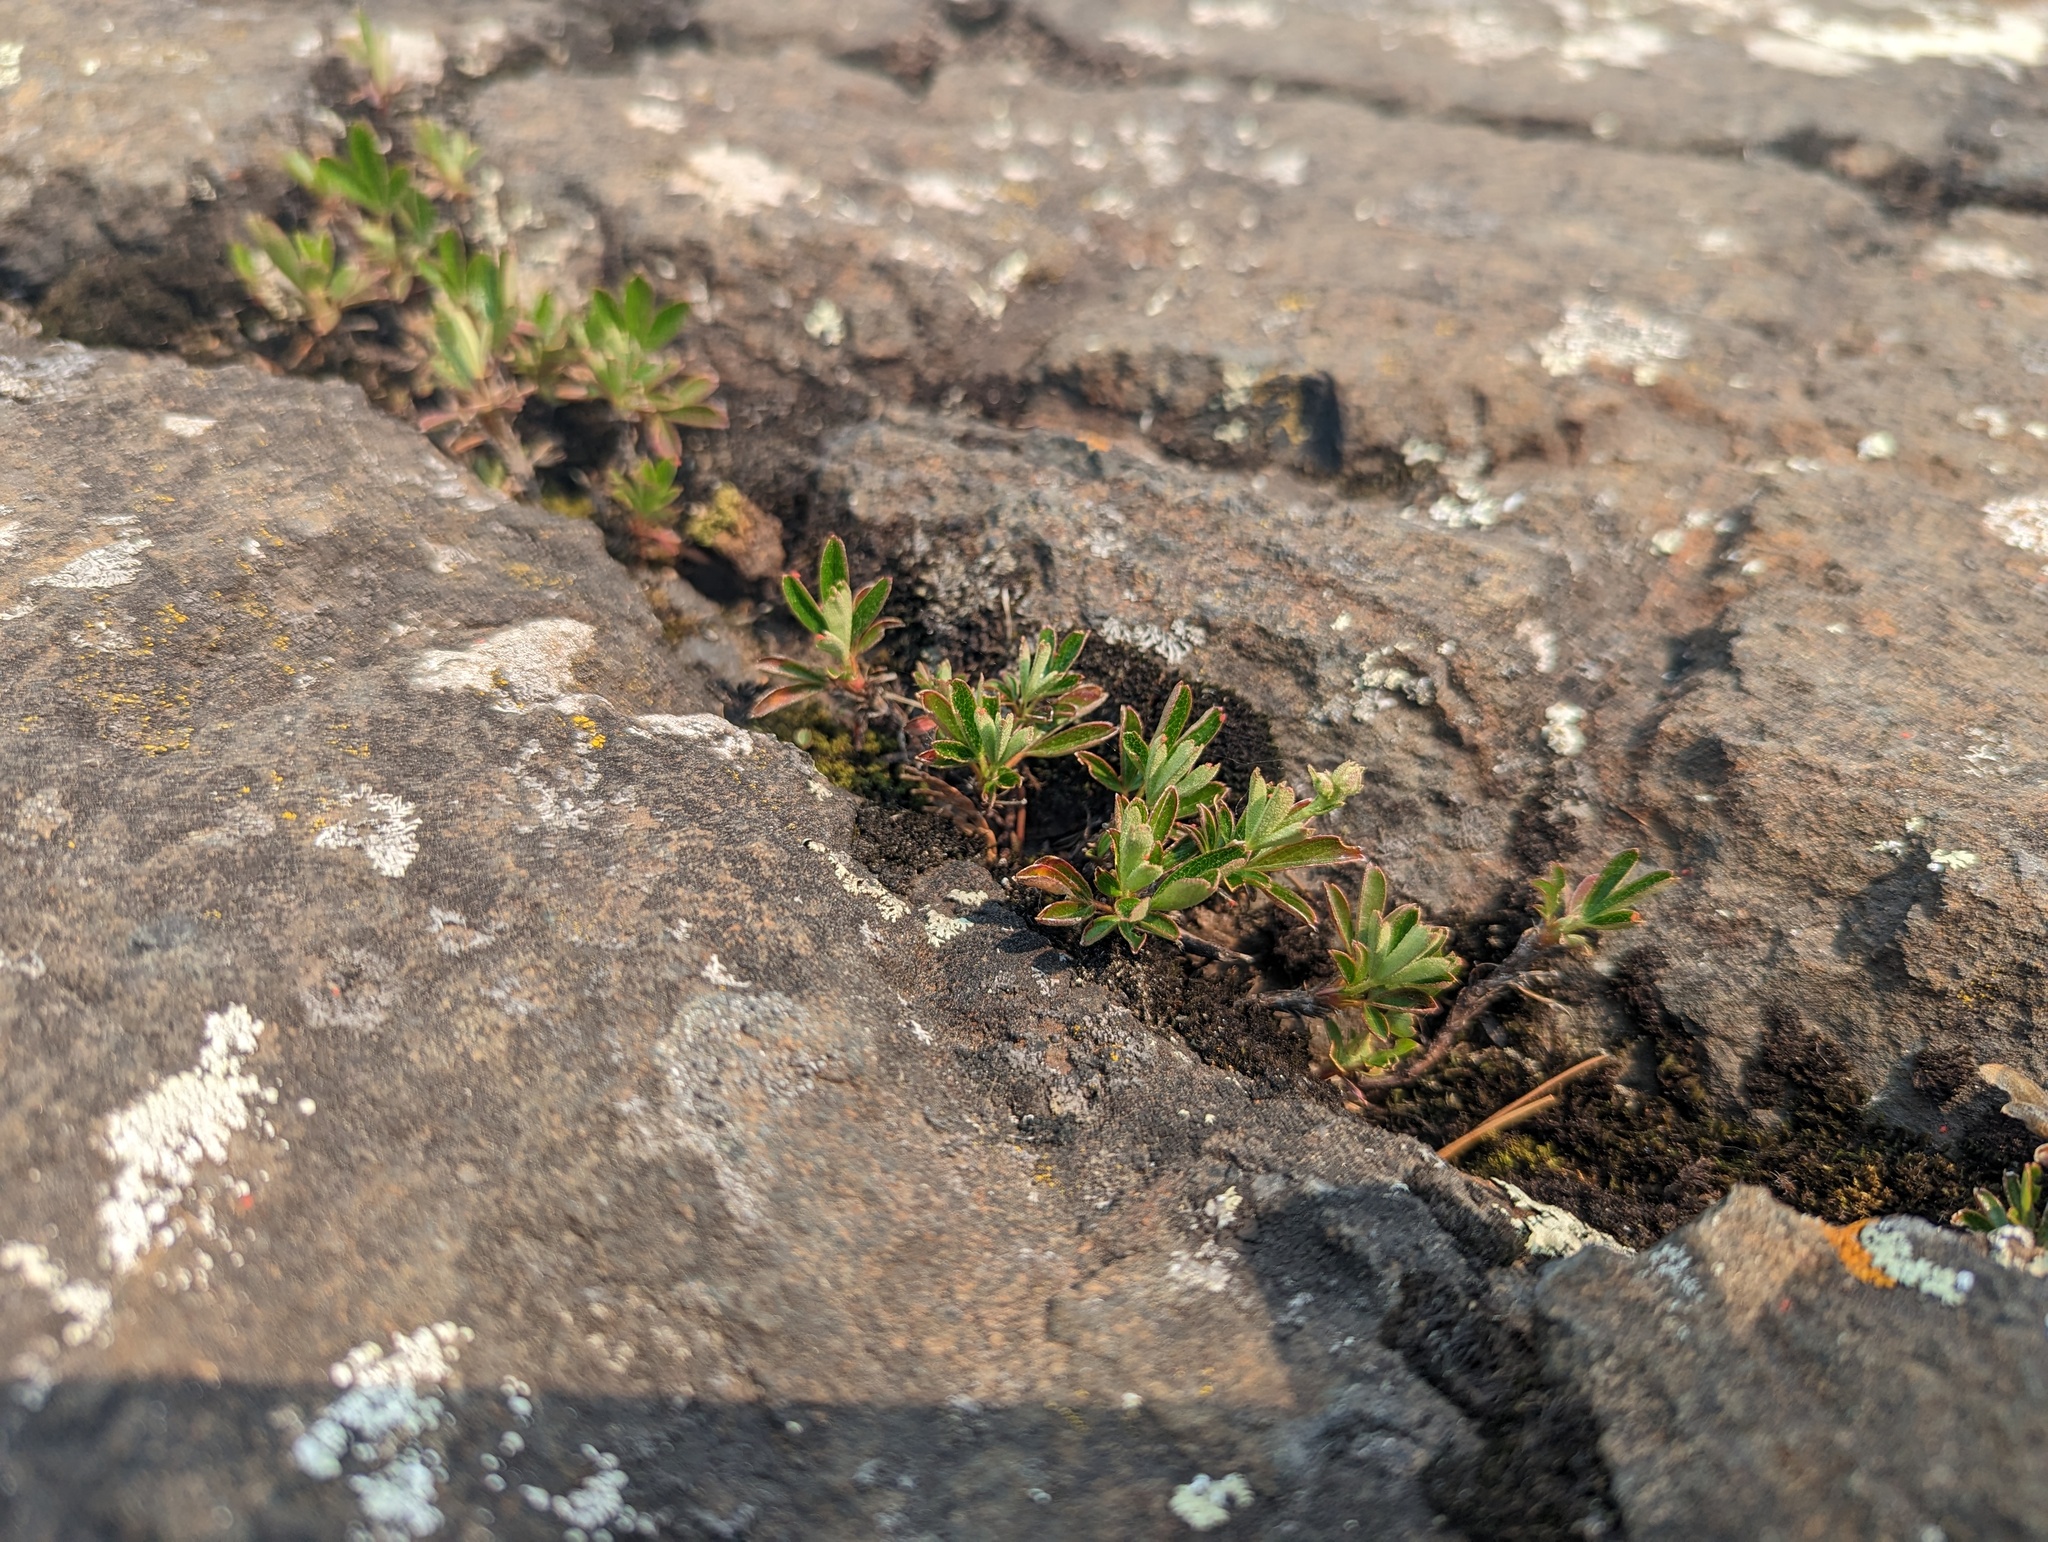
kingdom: Plantae
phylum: Tracheophyta
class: Magnoliopsida
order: Rosales
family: Rosaceae
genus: Sibbaldia
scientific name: Sibbaldia tridentata
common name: Three-toothed cinquefoil
